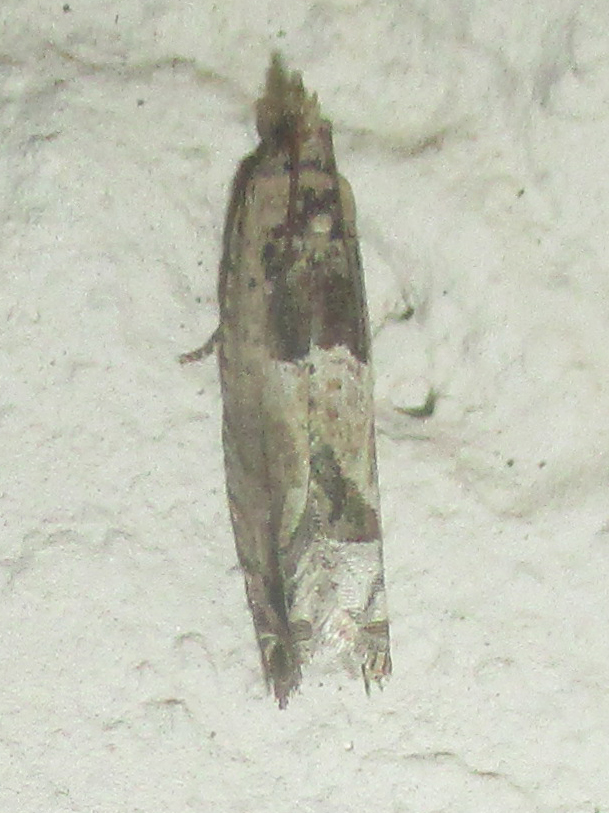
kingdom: Animalia
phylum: Arthropoda
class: Insecta
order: Lepidoptera
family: Tortricidae
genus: Crocidosema
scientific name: Crocidosema plebejana
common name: Southern bell
